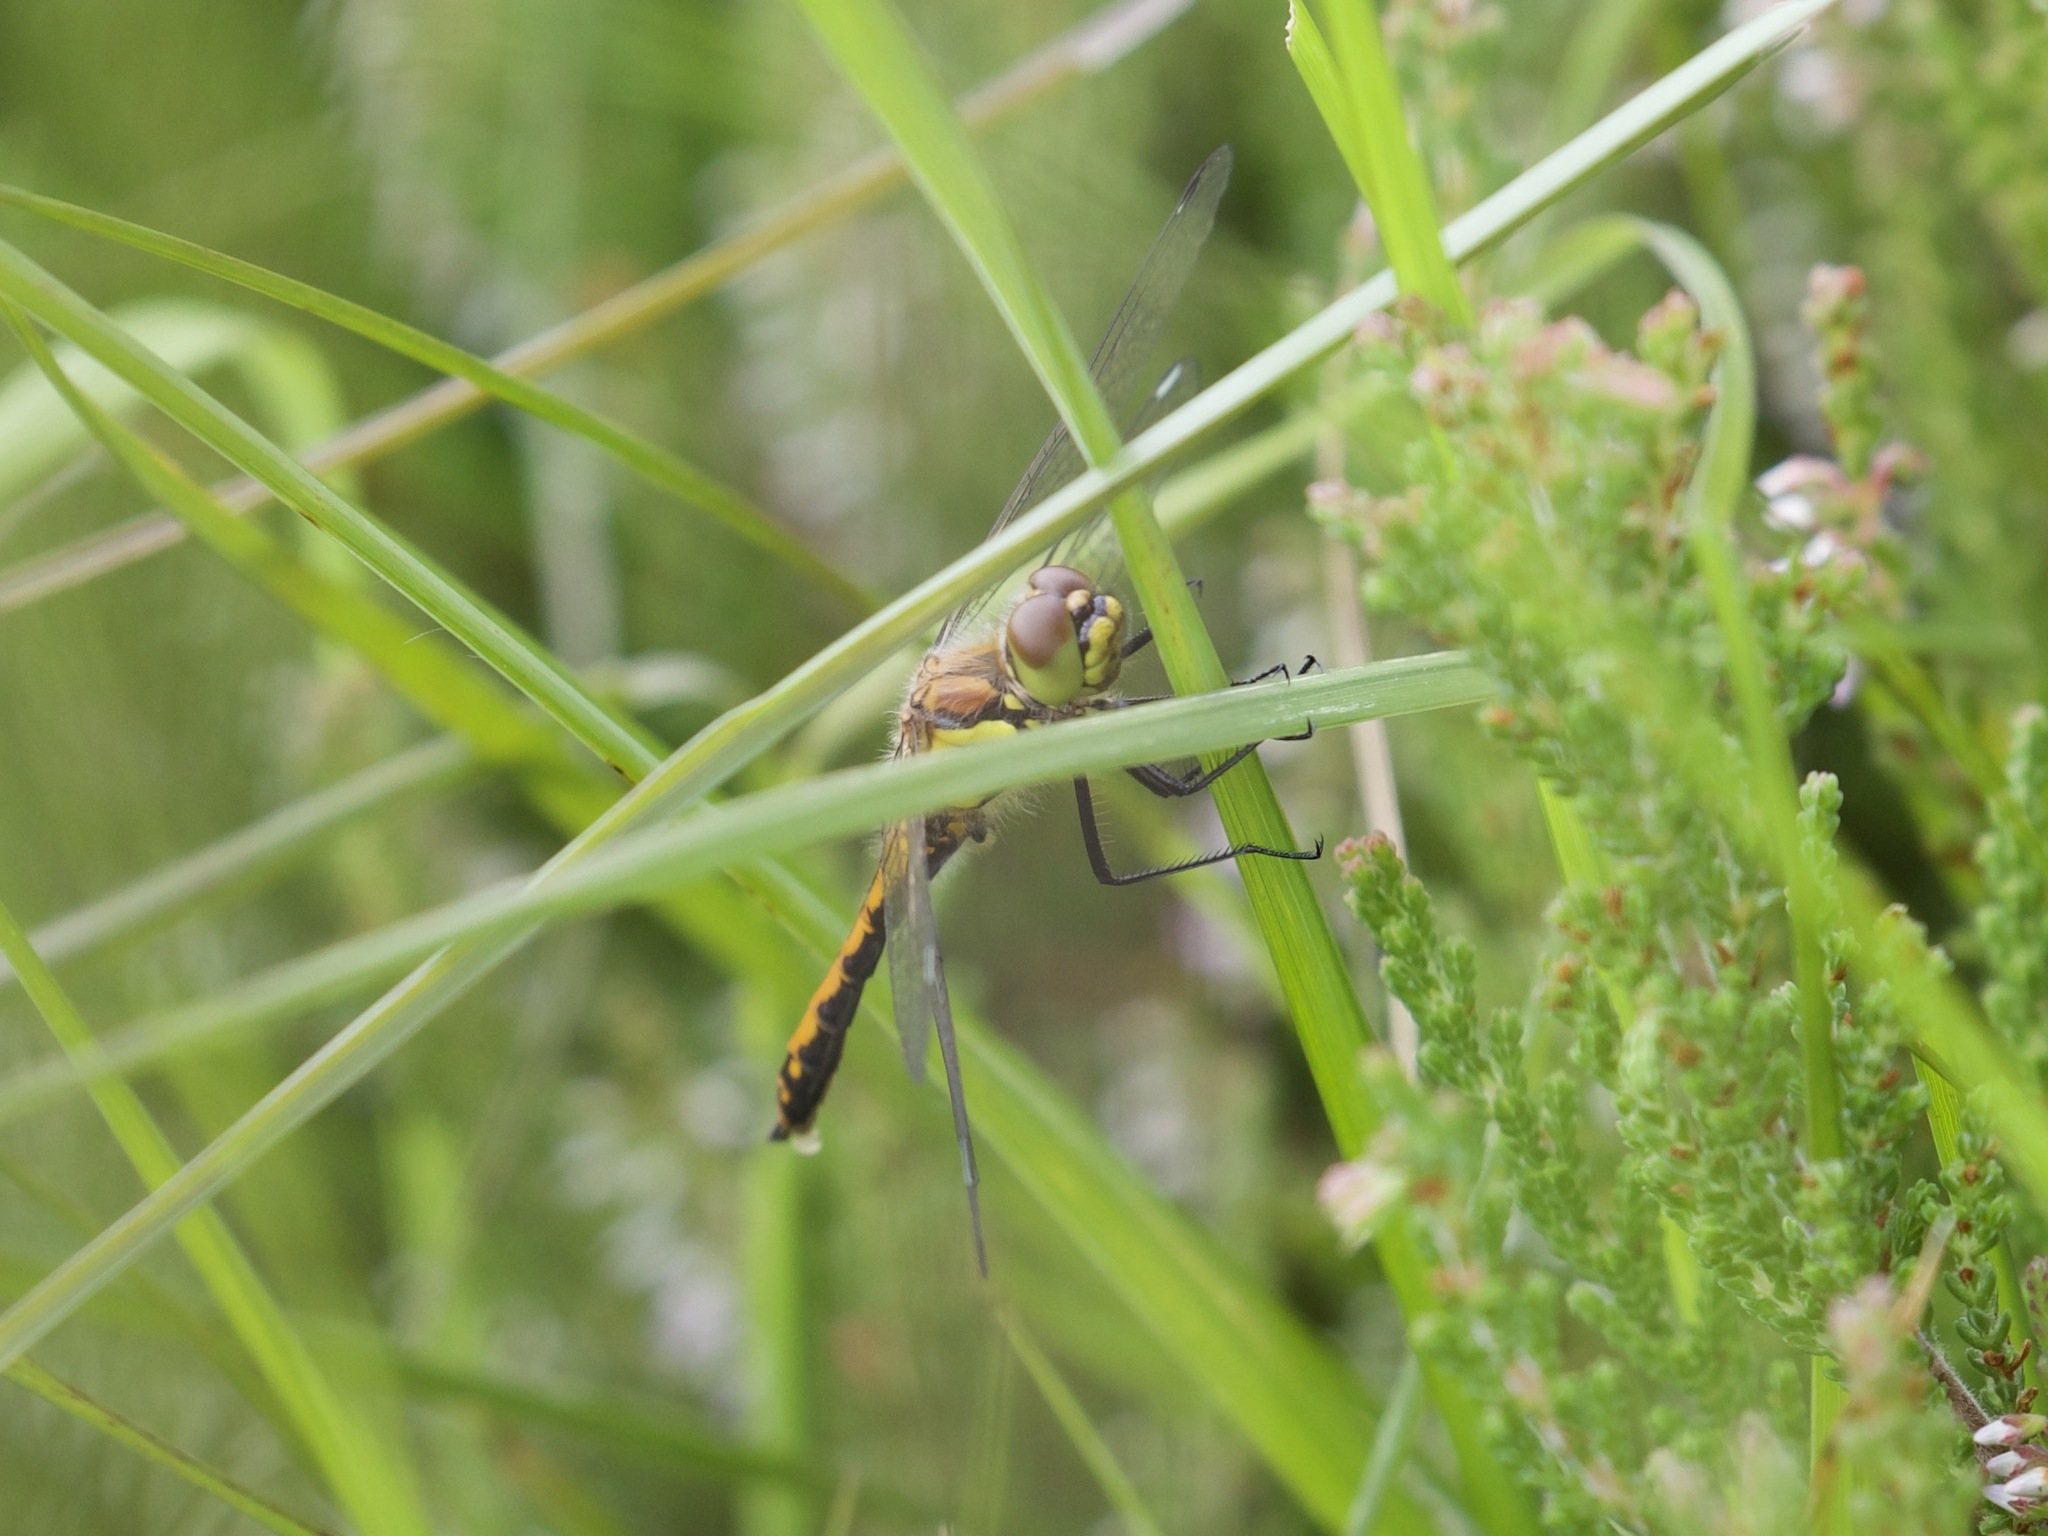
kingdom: Animalia
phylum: Arthropoda
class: Insecta
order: Odonata
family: Libellulidae
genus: Sympetrum
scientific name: Sympetrum danae
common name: Black darter
